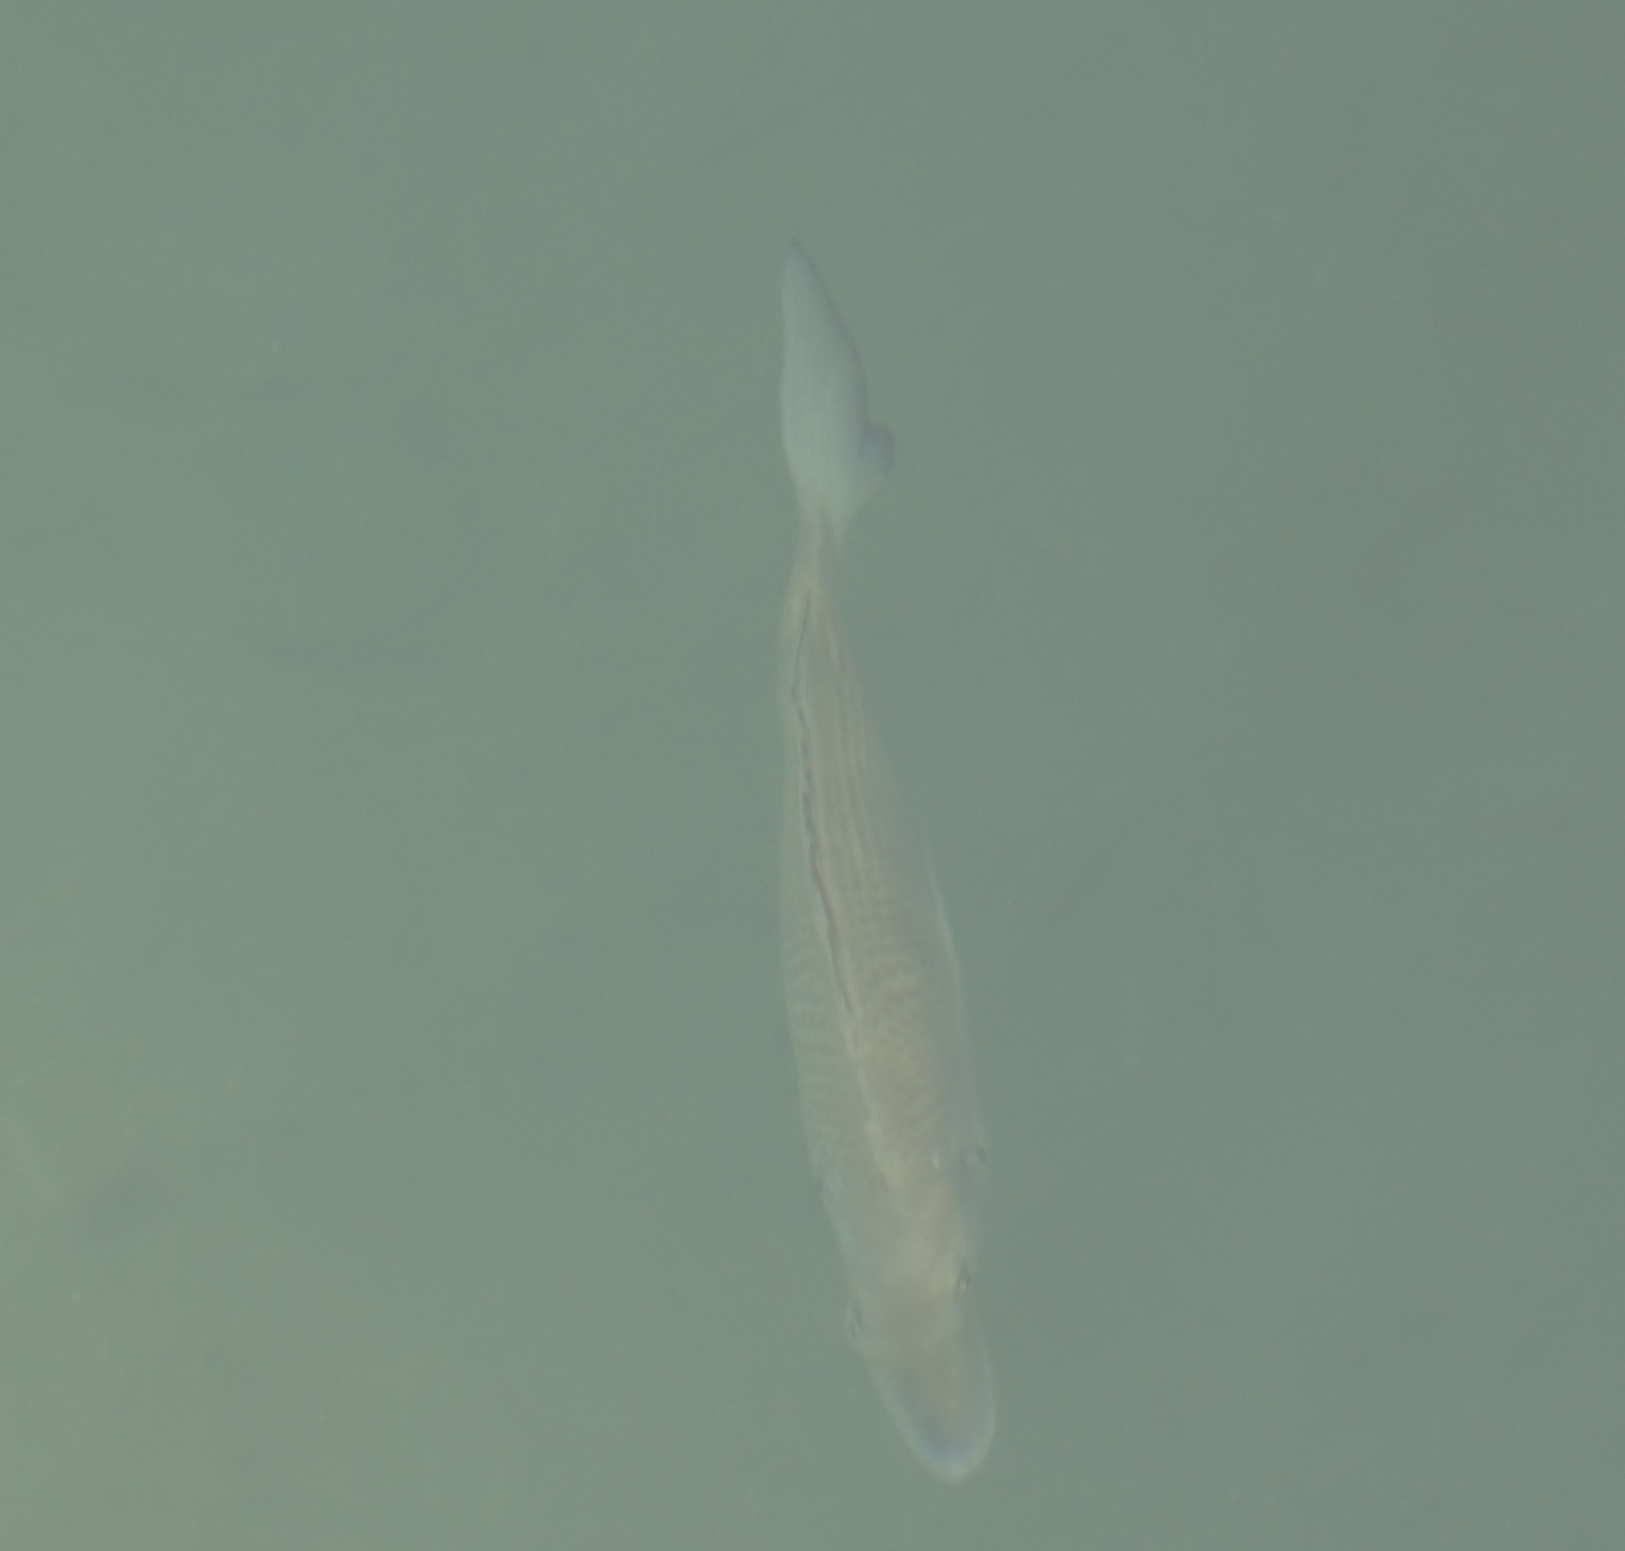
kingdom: Animalia
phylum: Chordata
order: Perciformes
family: Sparidae
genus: Acanthopagrus
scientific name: Acanthopagrus australis
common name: Surf bream
